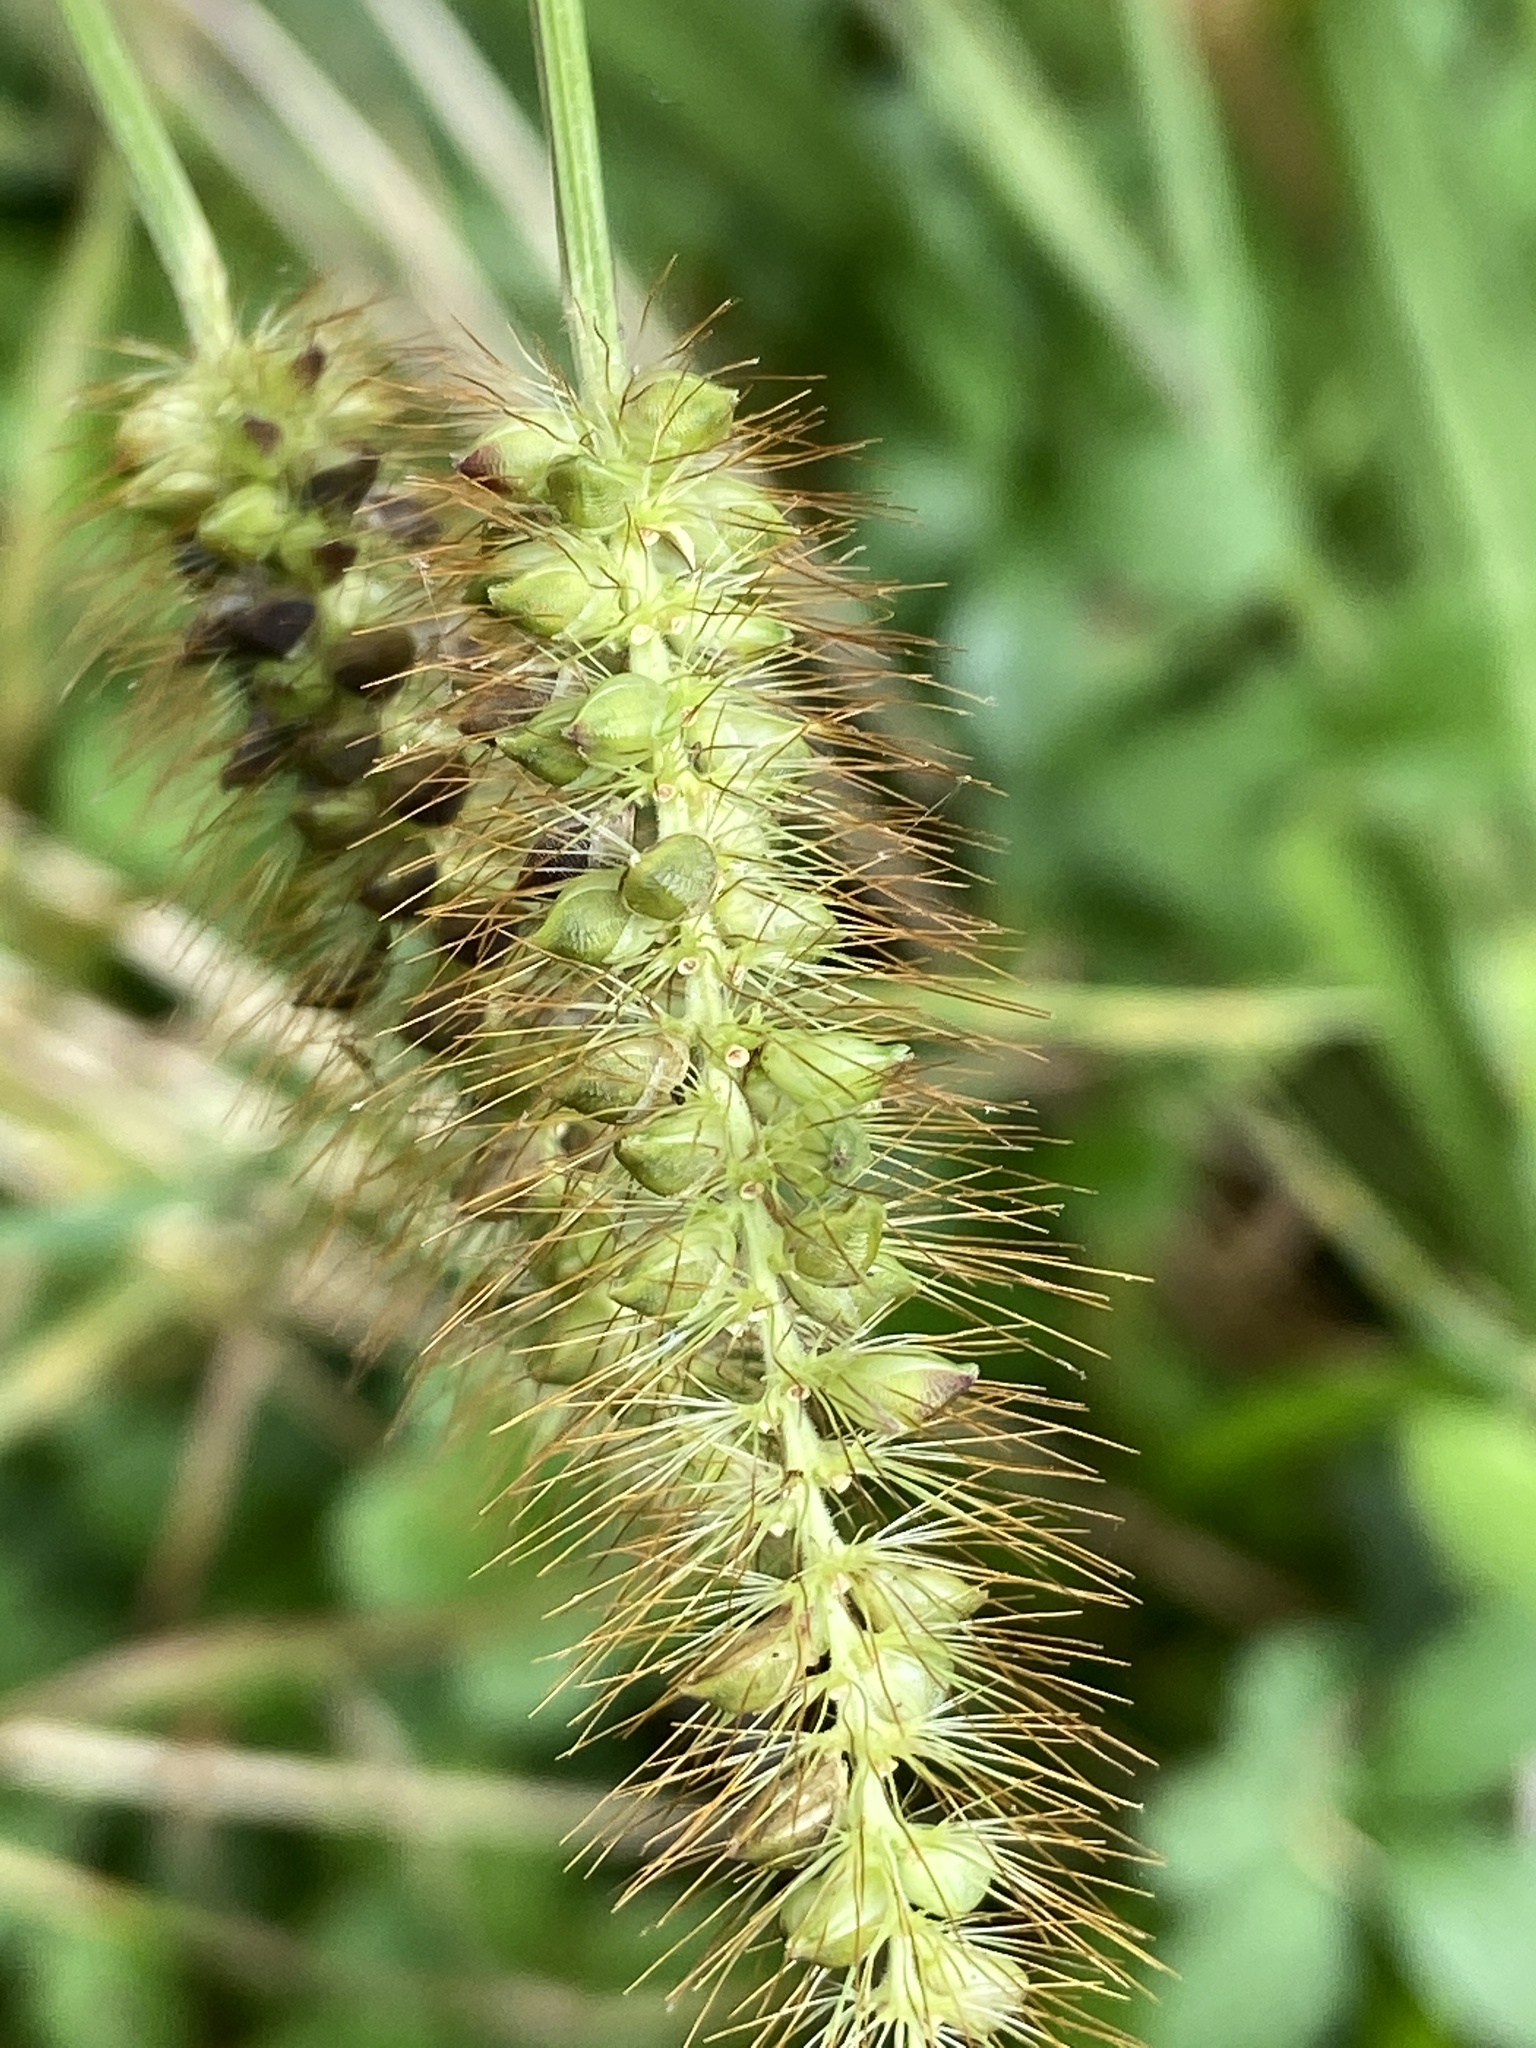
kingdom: Plantae
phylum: Tracheophyta
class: Liliopsida
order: Poales
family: Poaceae
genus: Setaria
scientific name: Setaria pumila
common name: Yellow bristle-grass
